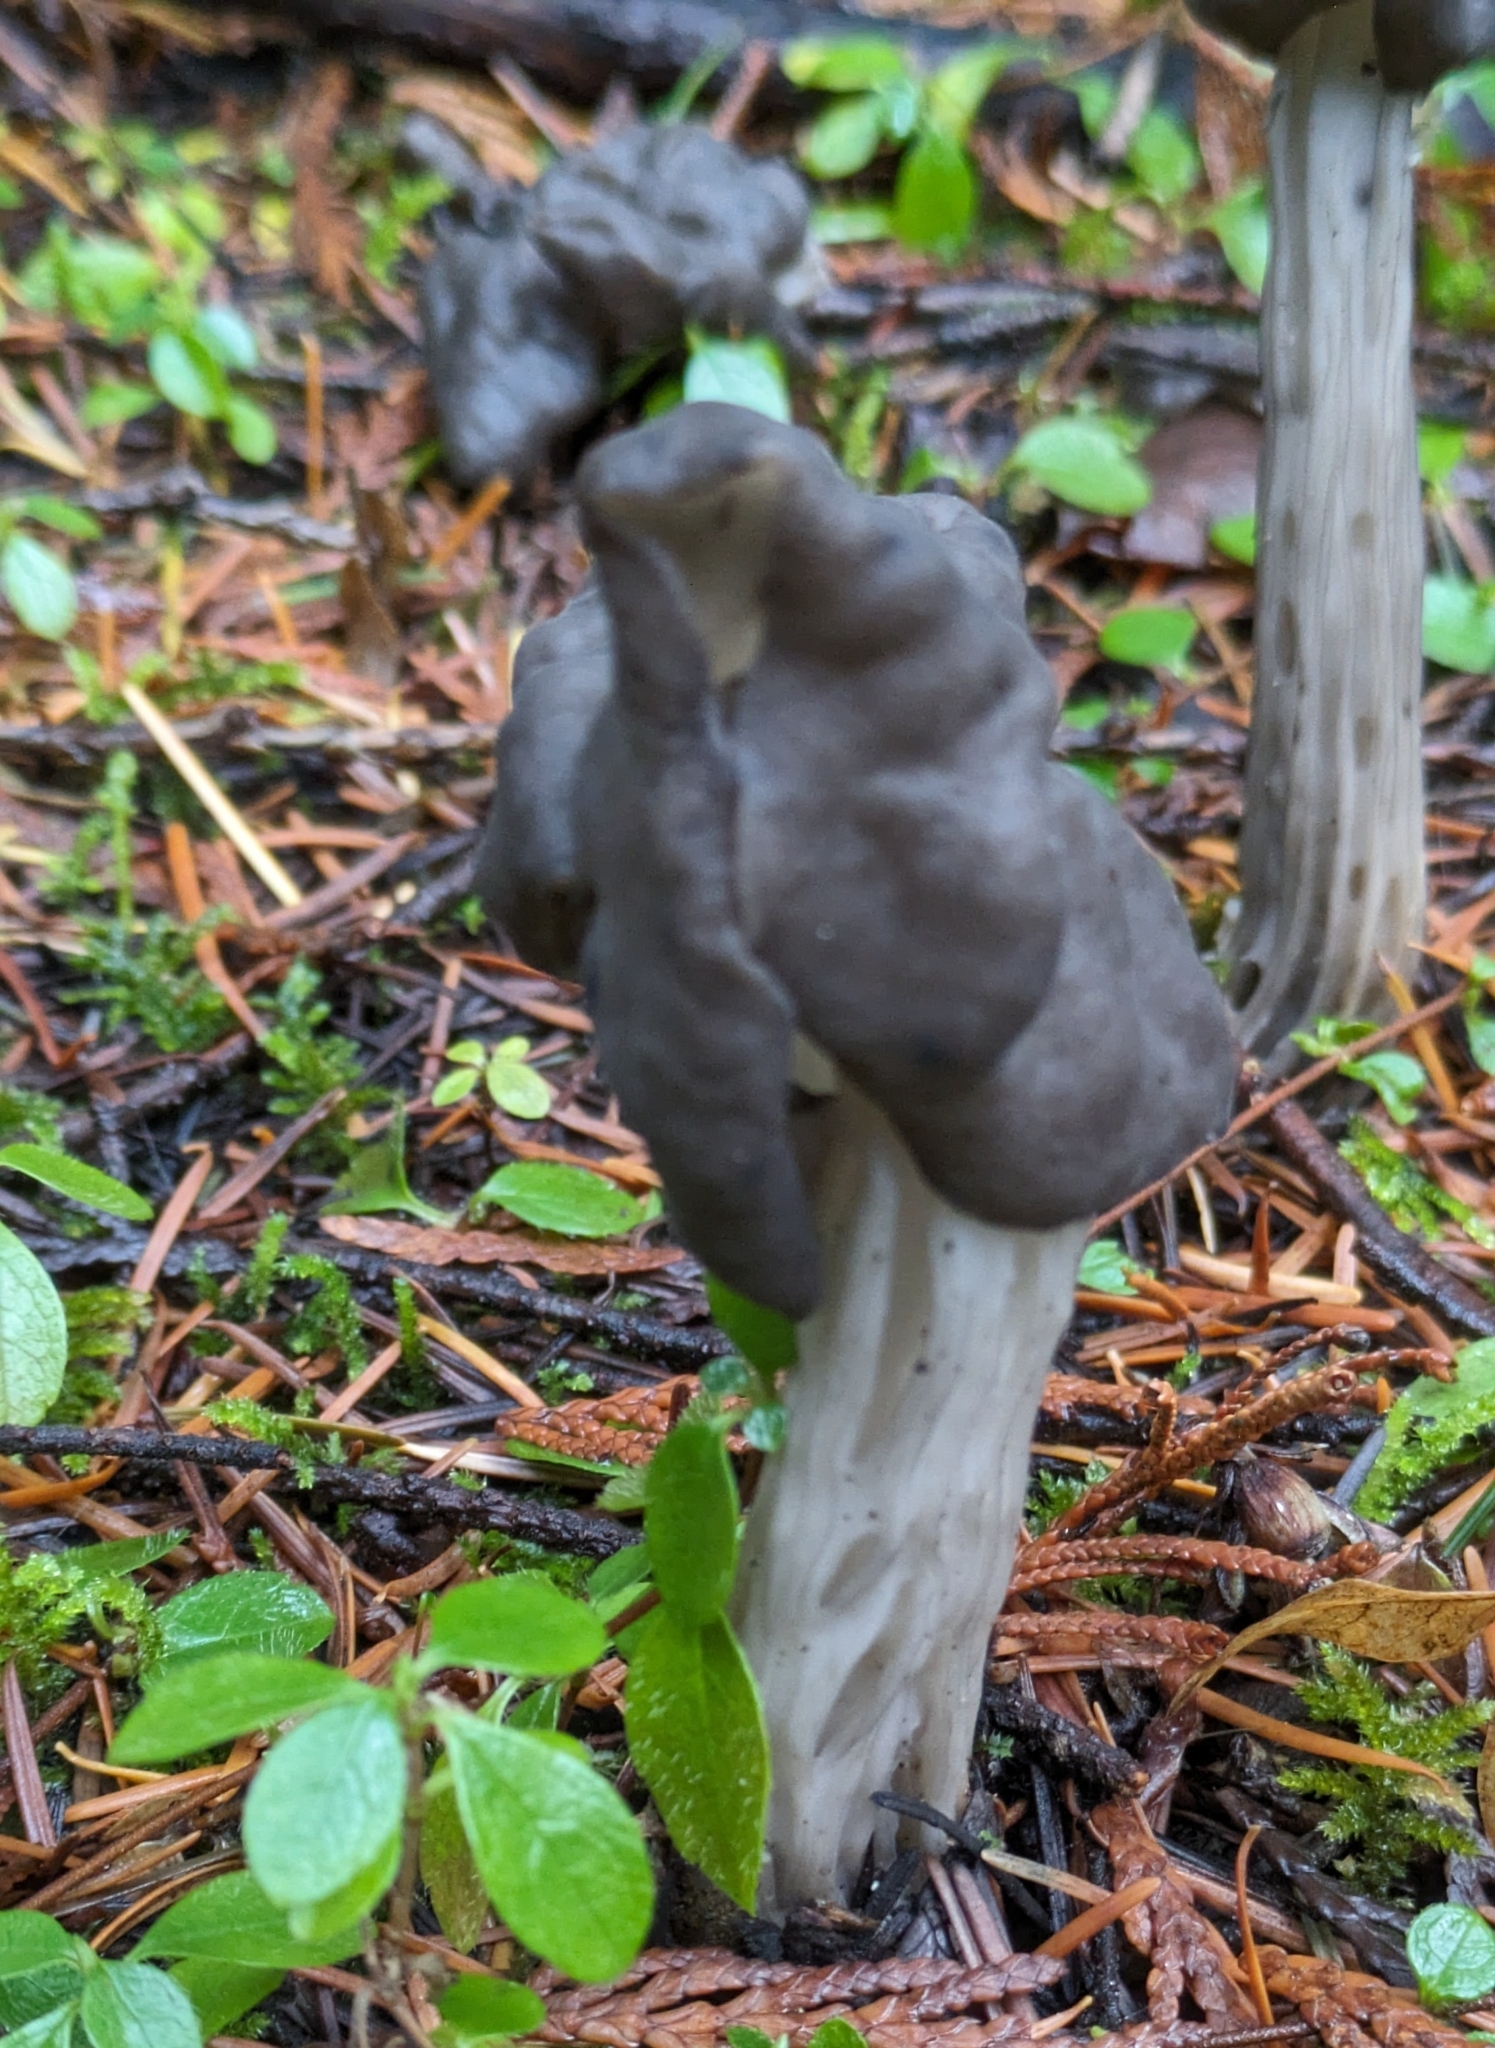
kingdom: Fungi
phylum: Ascomycota
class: Pezizomycetes
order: Pezizales
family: Helvellaceae
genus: Helvella
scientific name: Helvella vespertina
